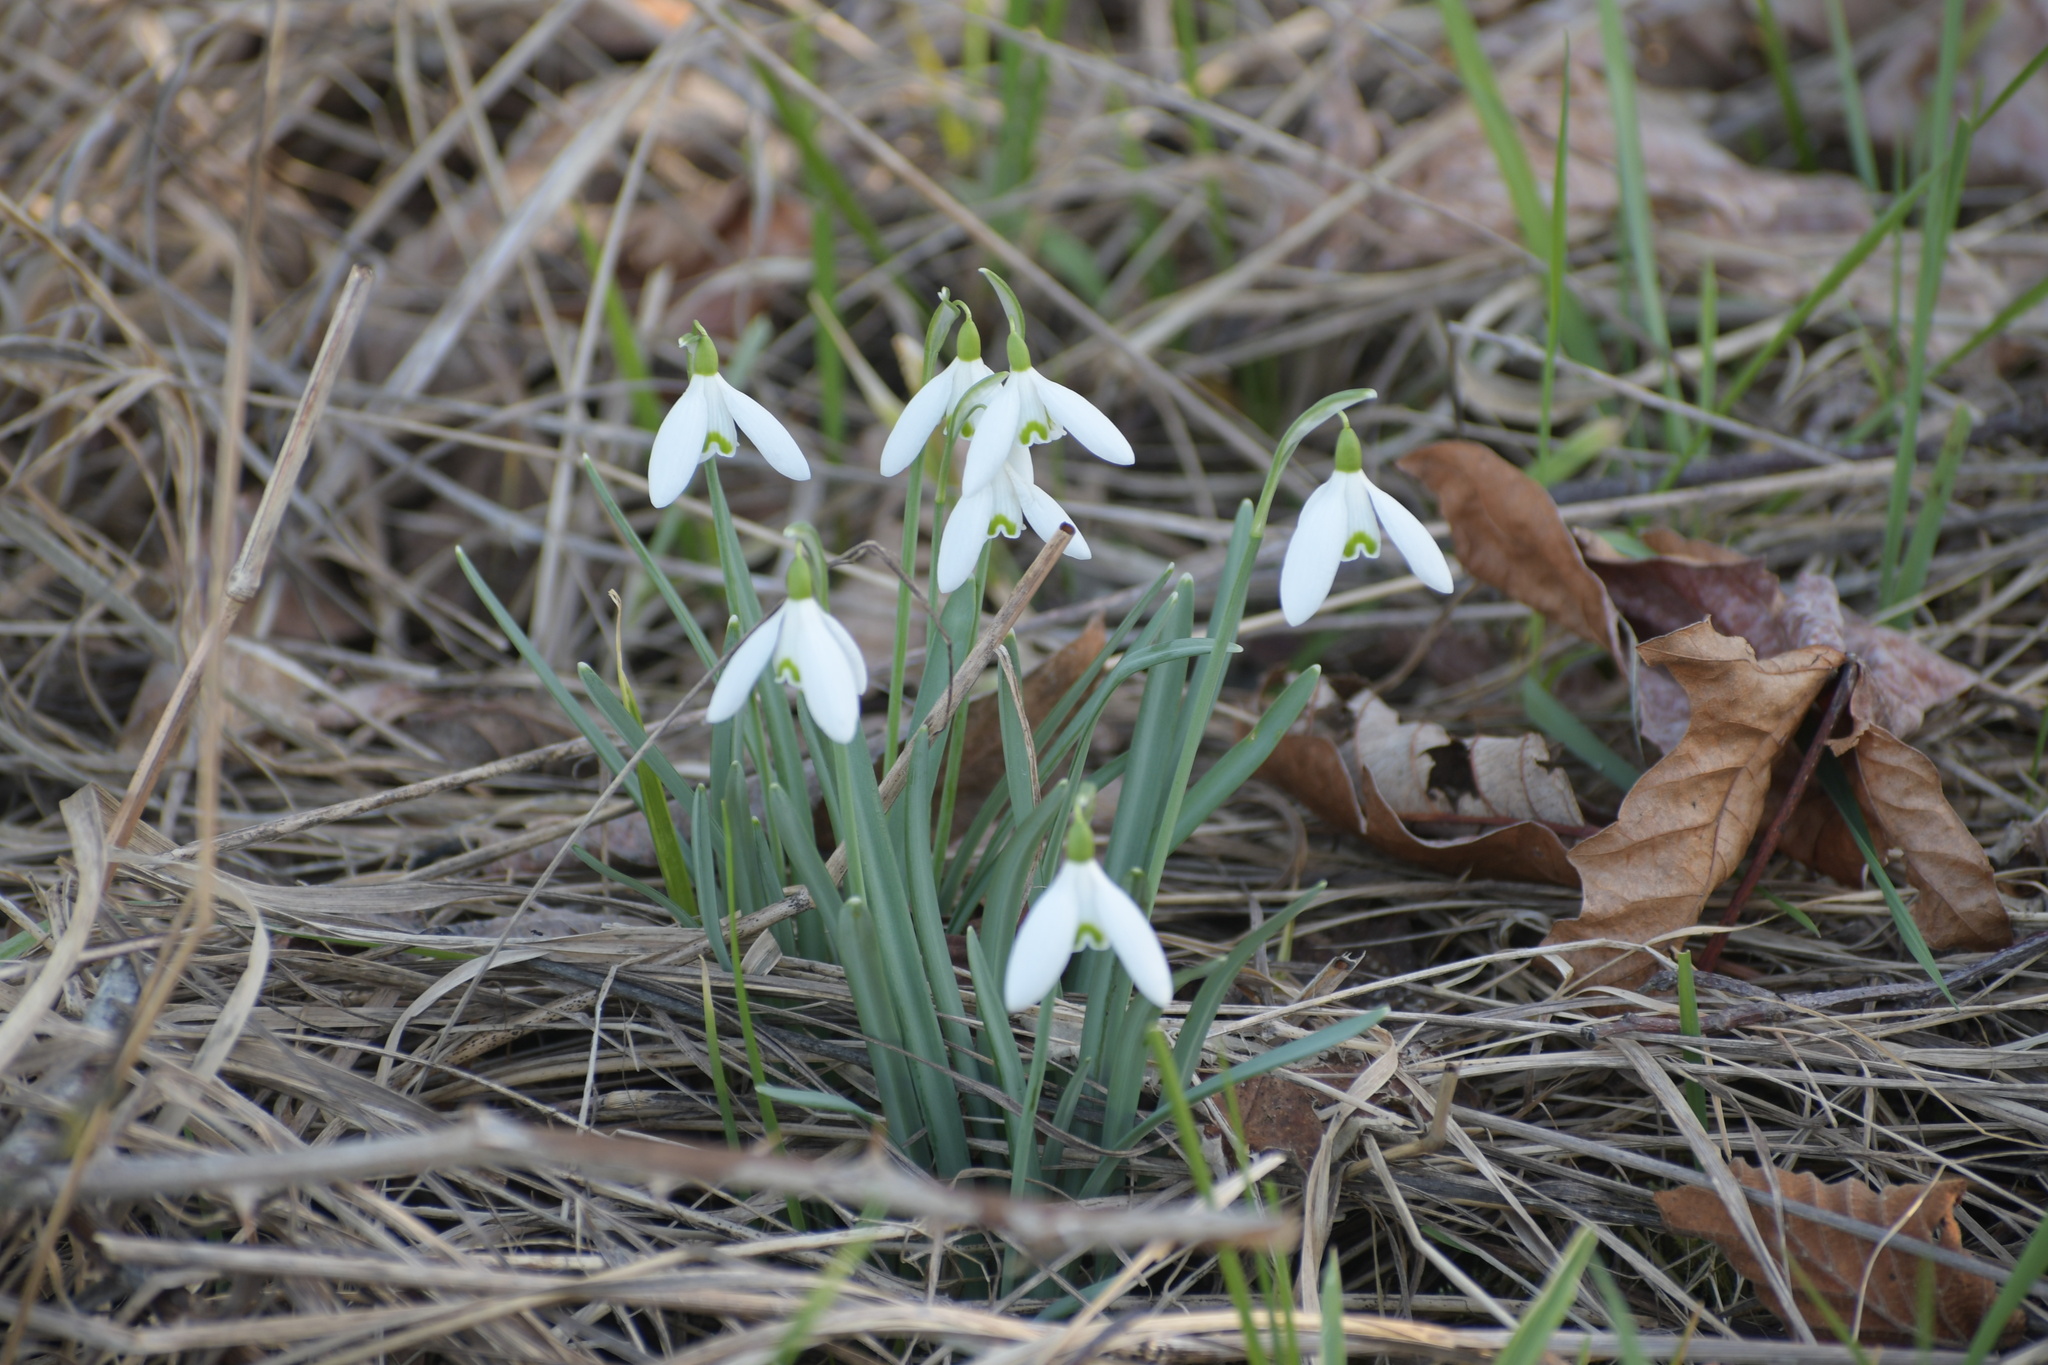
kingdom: Plantae
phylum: Tracheophyta
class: Liliopsida
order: Asparagales
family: Amaryllidaceae
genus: Galanthus
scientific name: Galanthus nivalis
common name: Snowdrop
